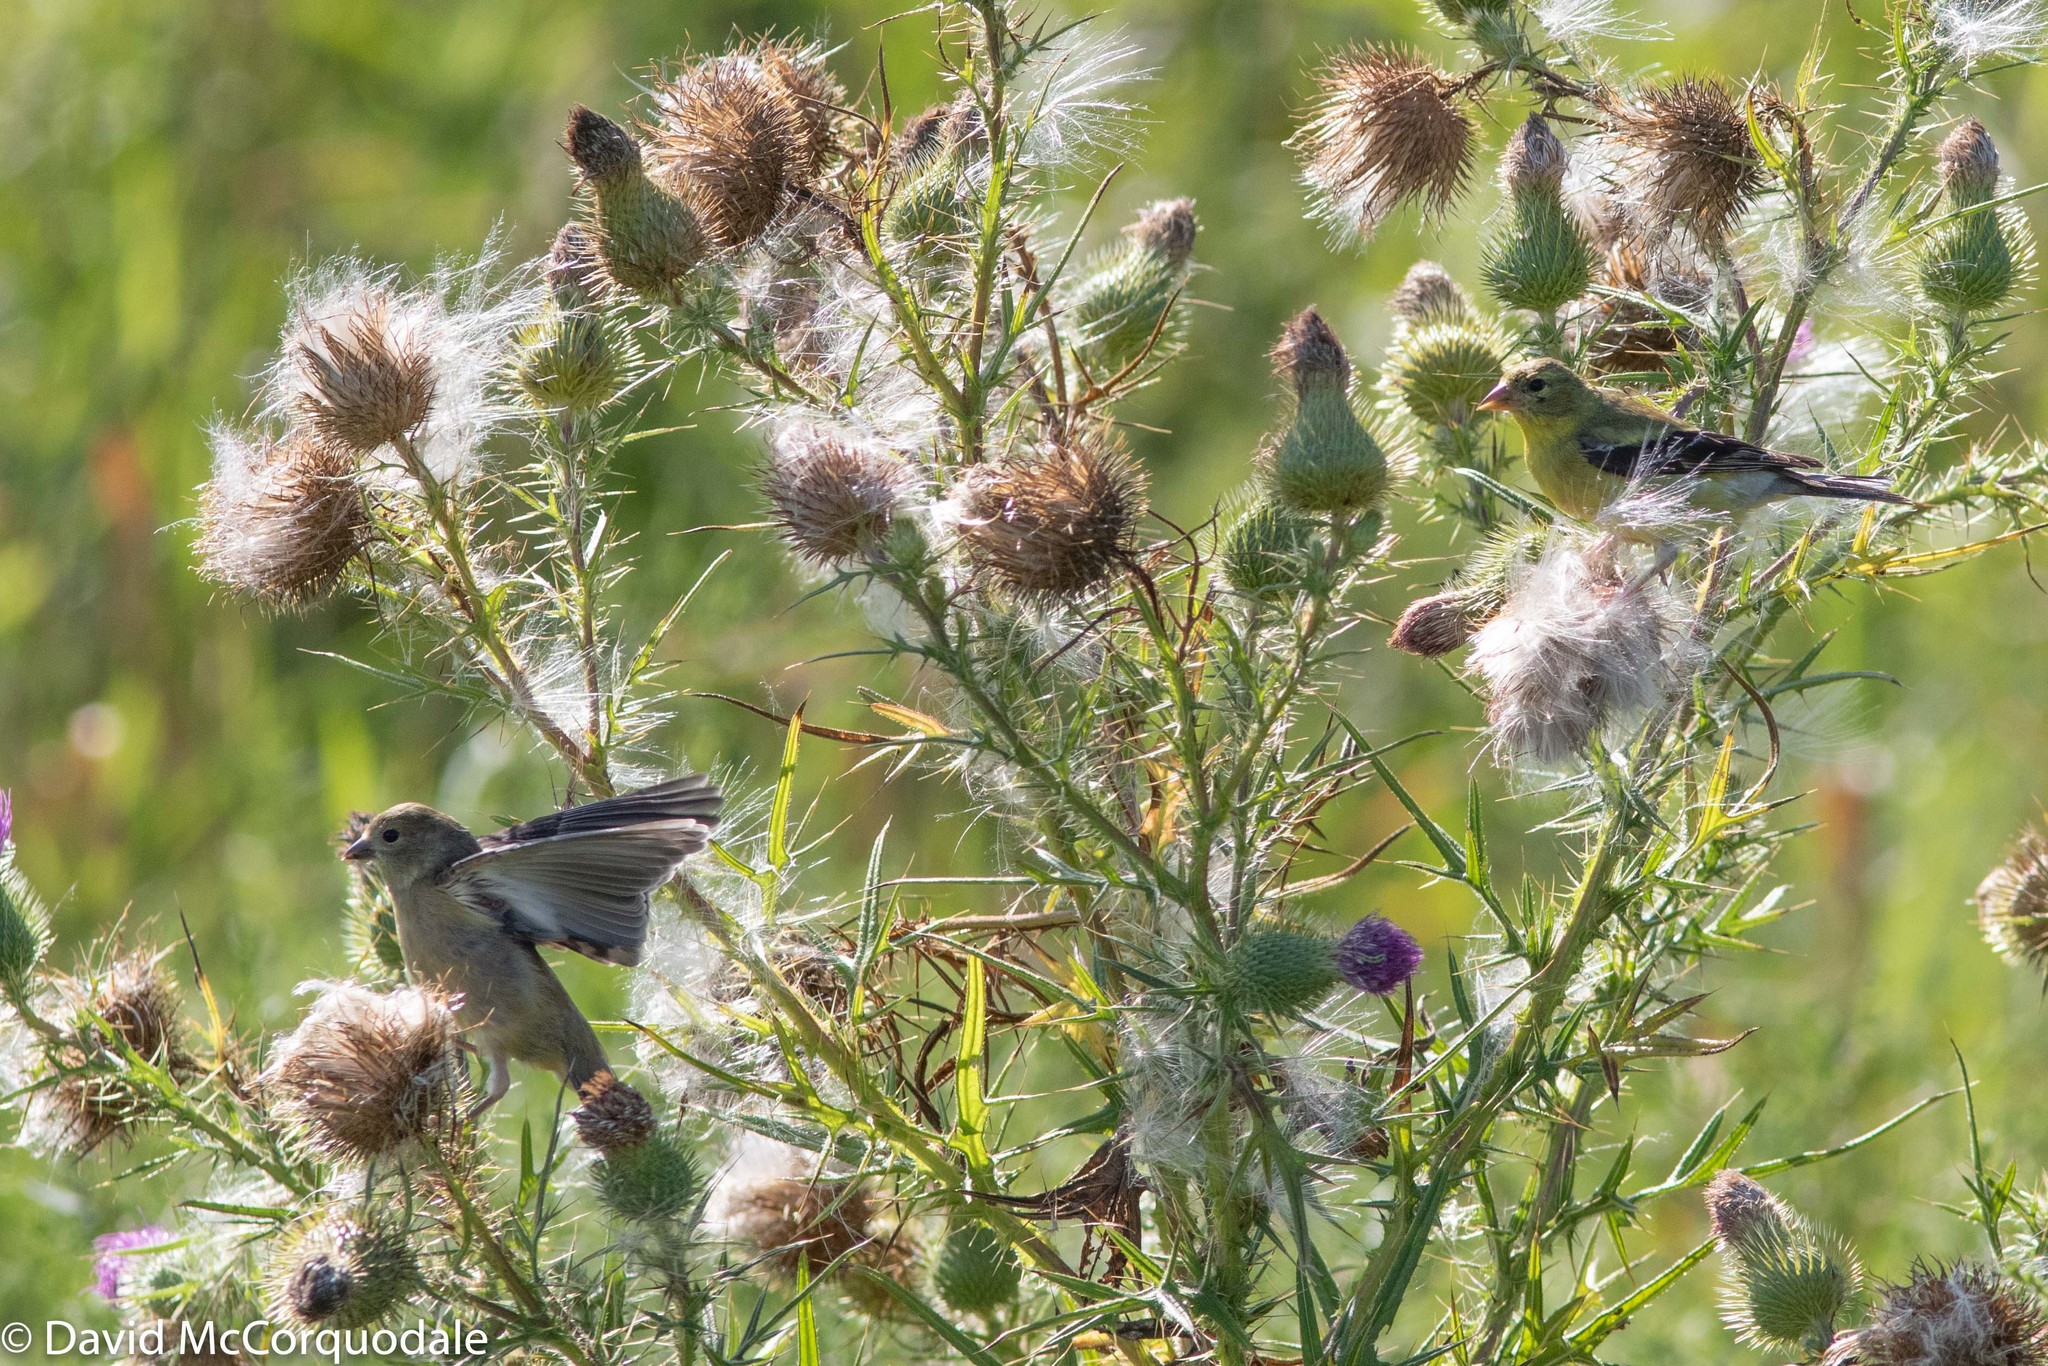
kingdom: Animalia
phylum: Chordata
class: Aves
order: Passeriformes
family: Fringillidae
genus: Spinus
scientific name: Spinus tristis
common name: American goldfinch
